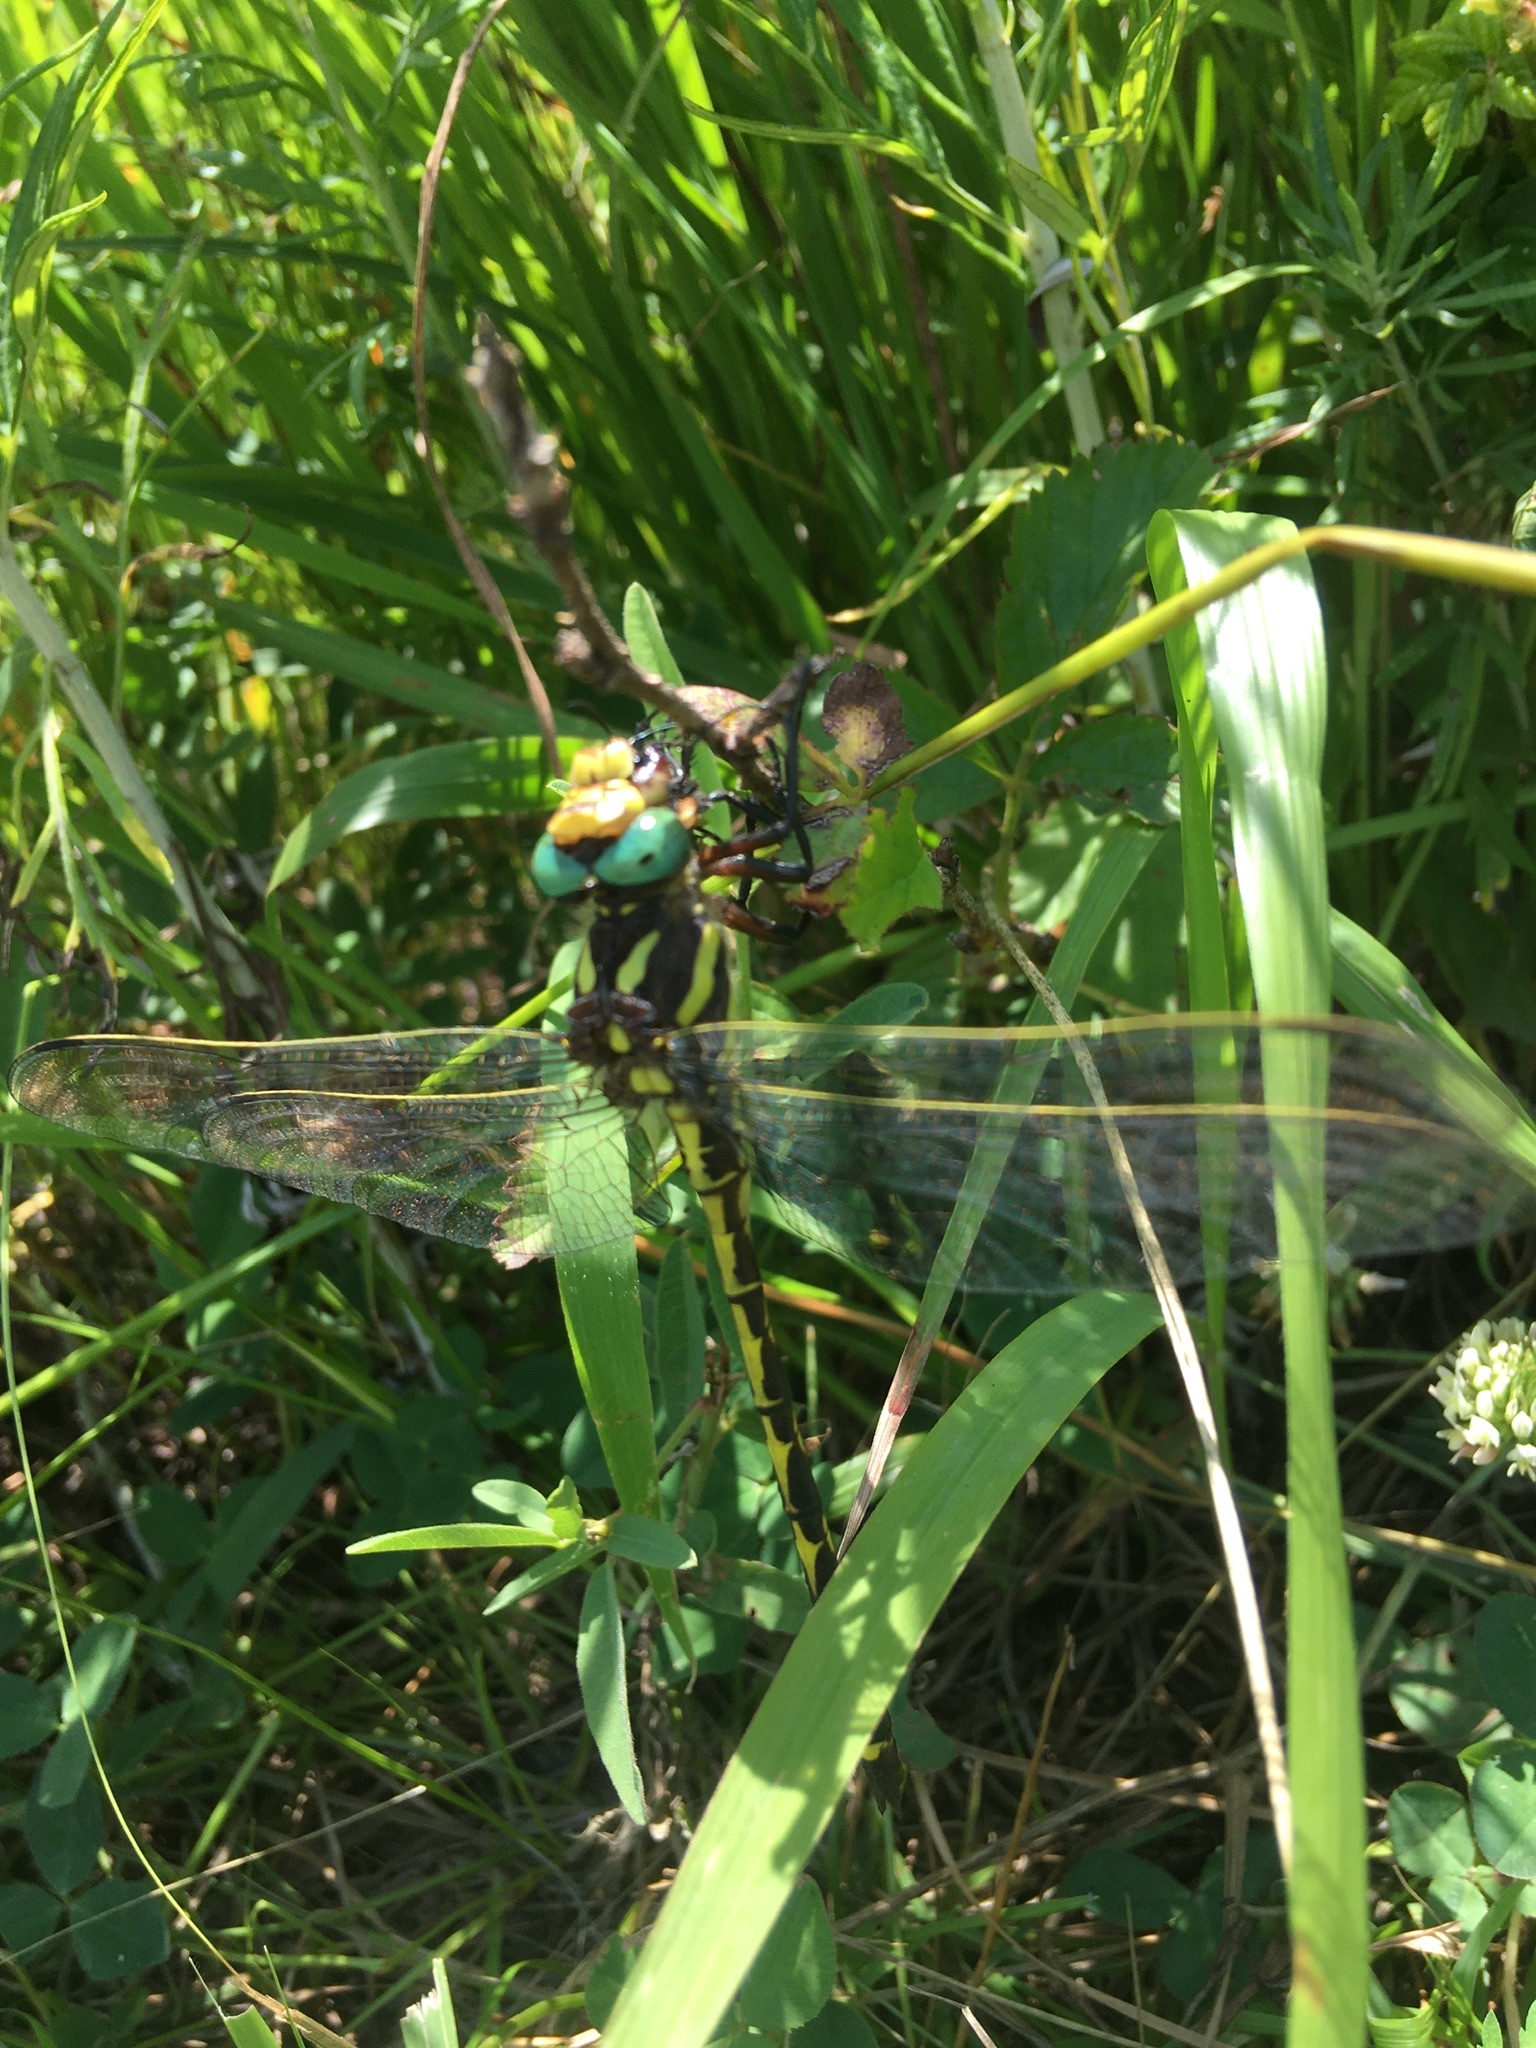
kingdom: Animalia
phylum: Arthropoda
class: Insecta
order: Odonata
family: Cordulegastridae
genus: Cordulegaster
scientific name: Cordulegaster obliqua
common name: Arrowhead spiketail
